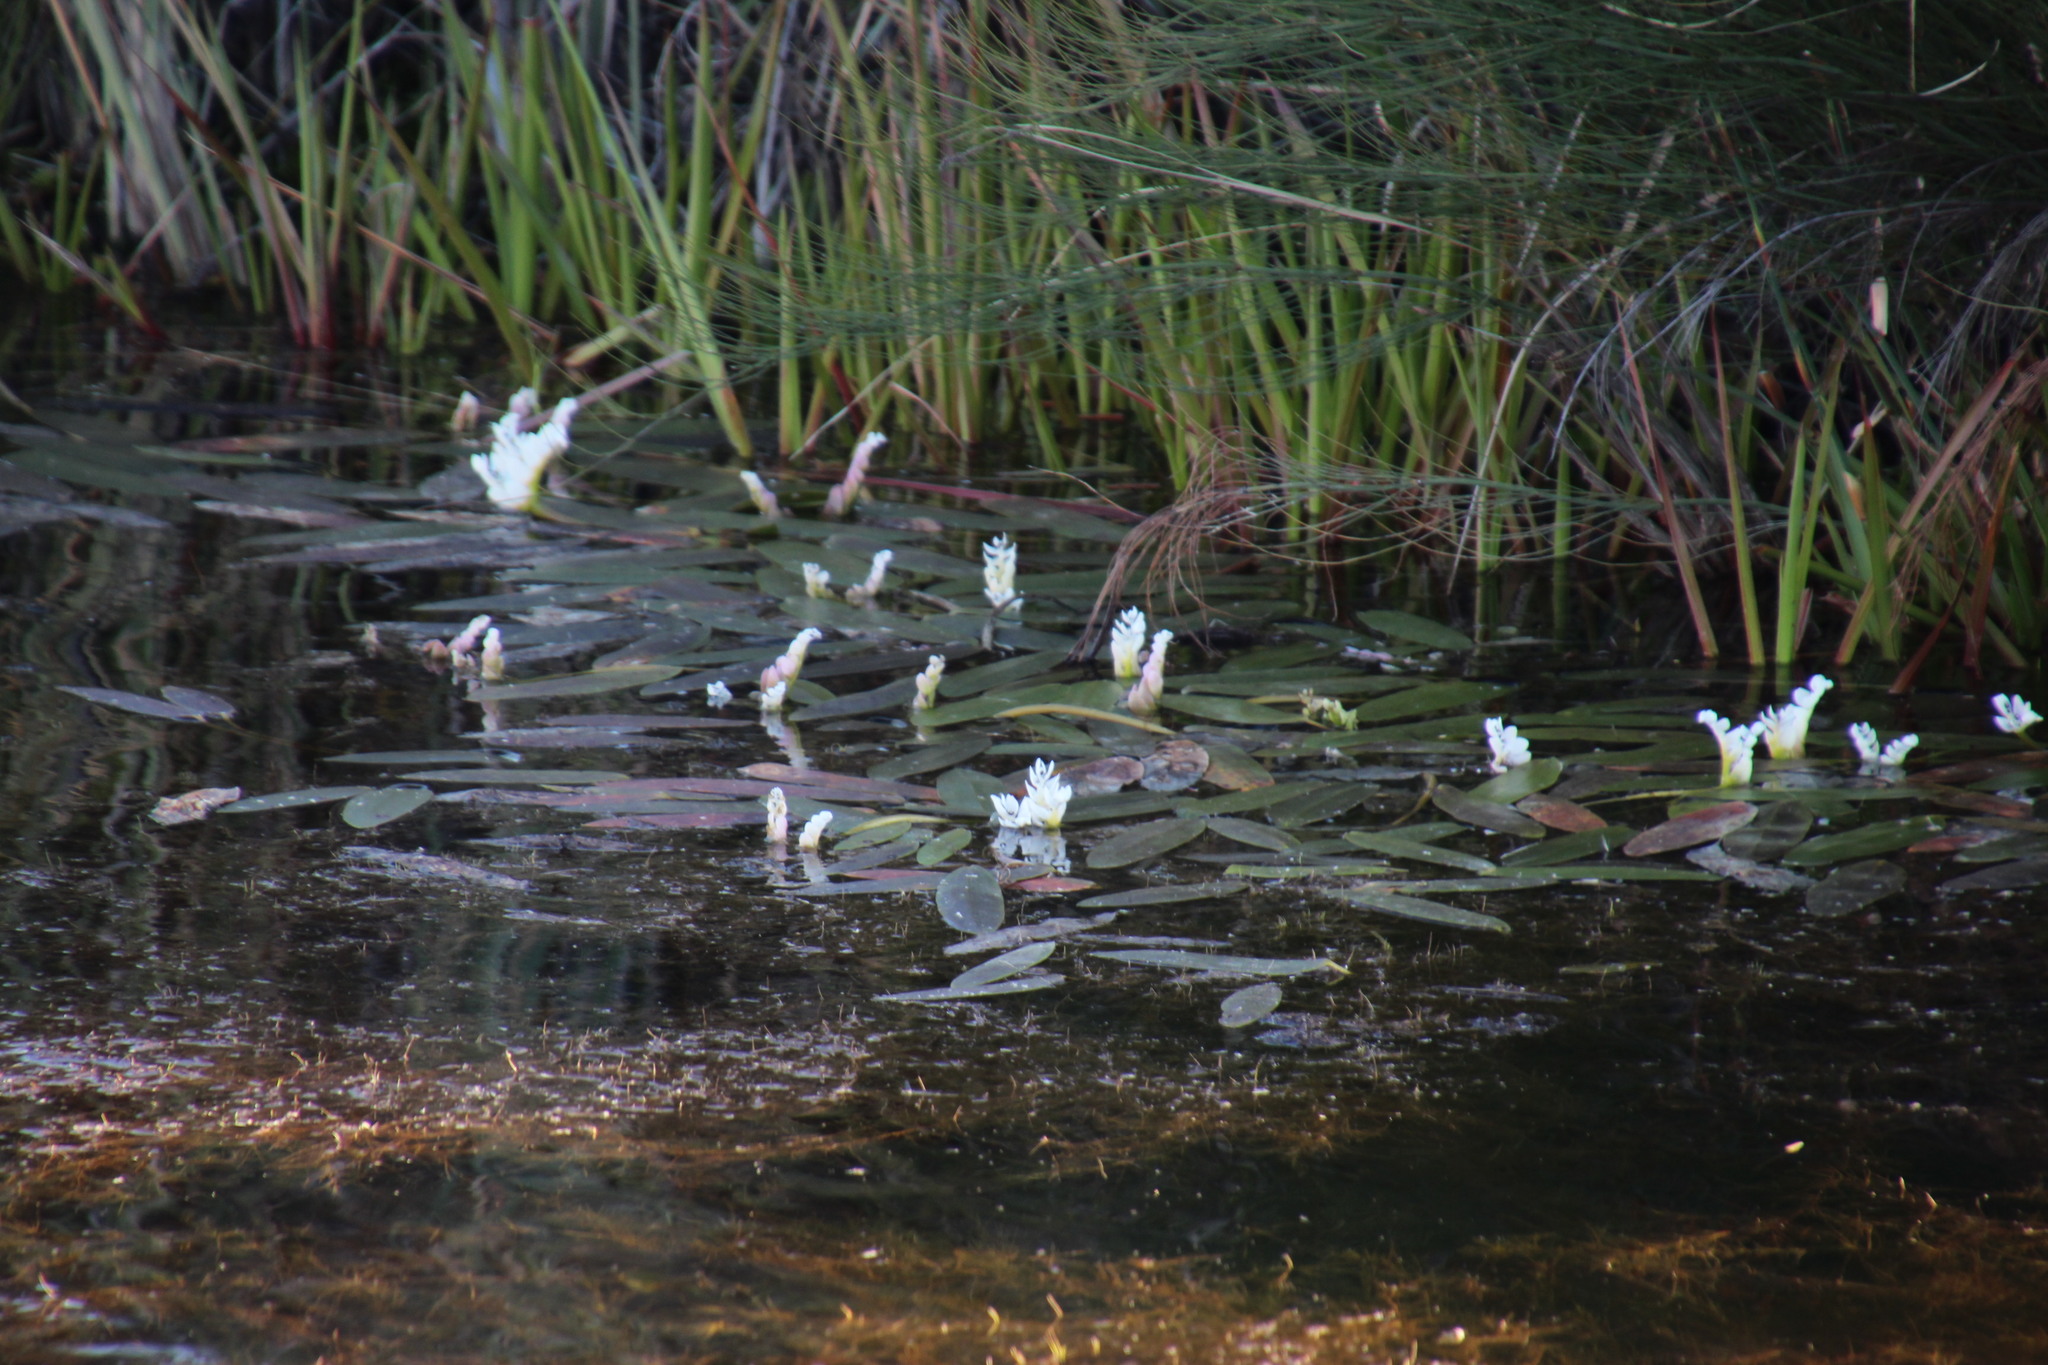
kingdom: Plantae
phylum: Tracheophyta
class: Liliopsida
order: Alismatales
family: Aponogetonaceae
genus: Aponogeton
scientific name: Aponogeton distachyos
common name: Cape-pondweed
